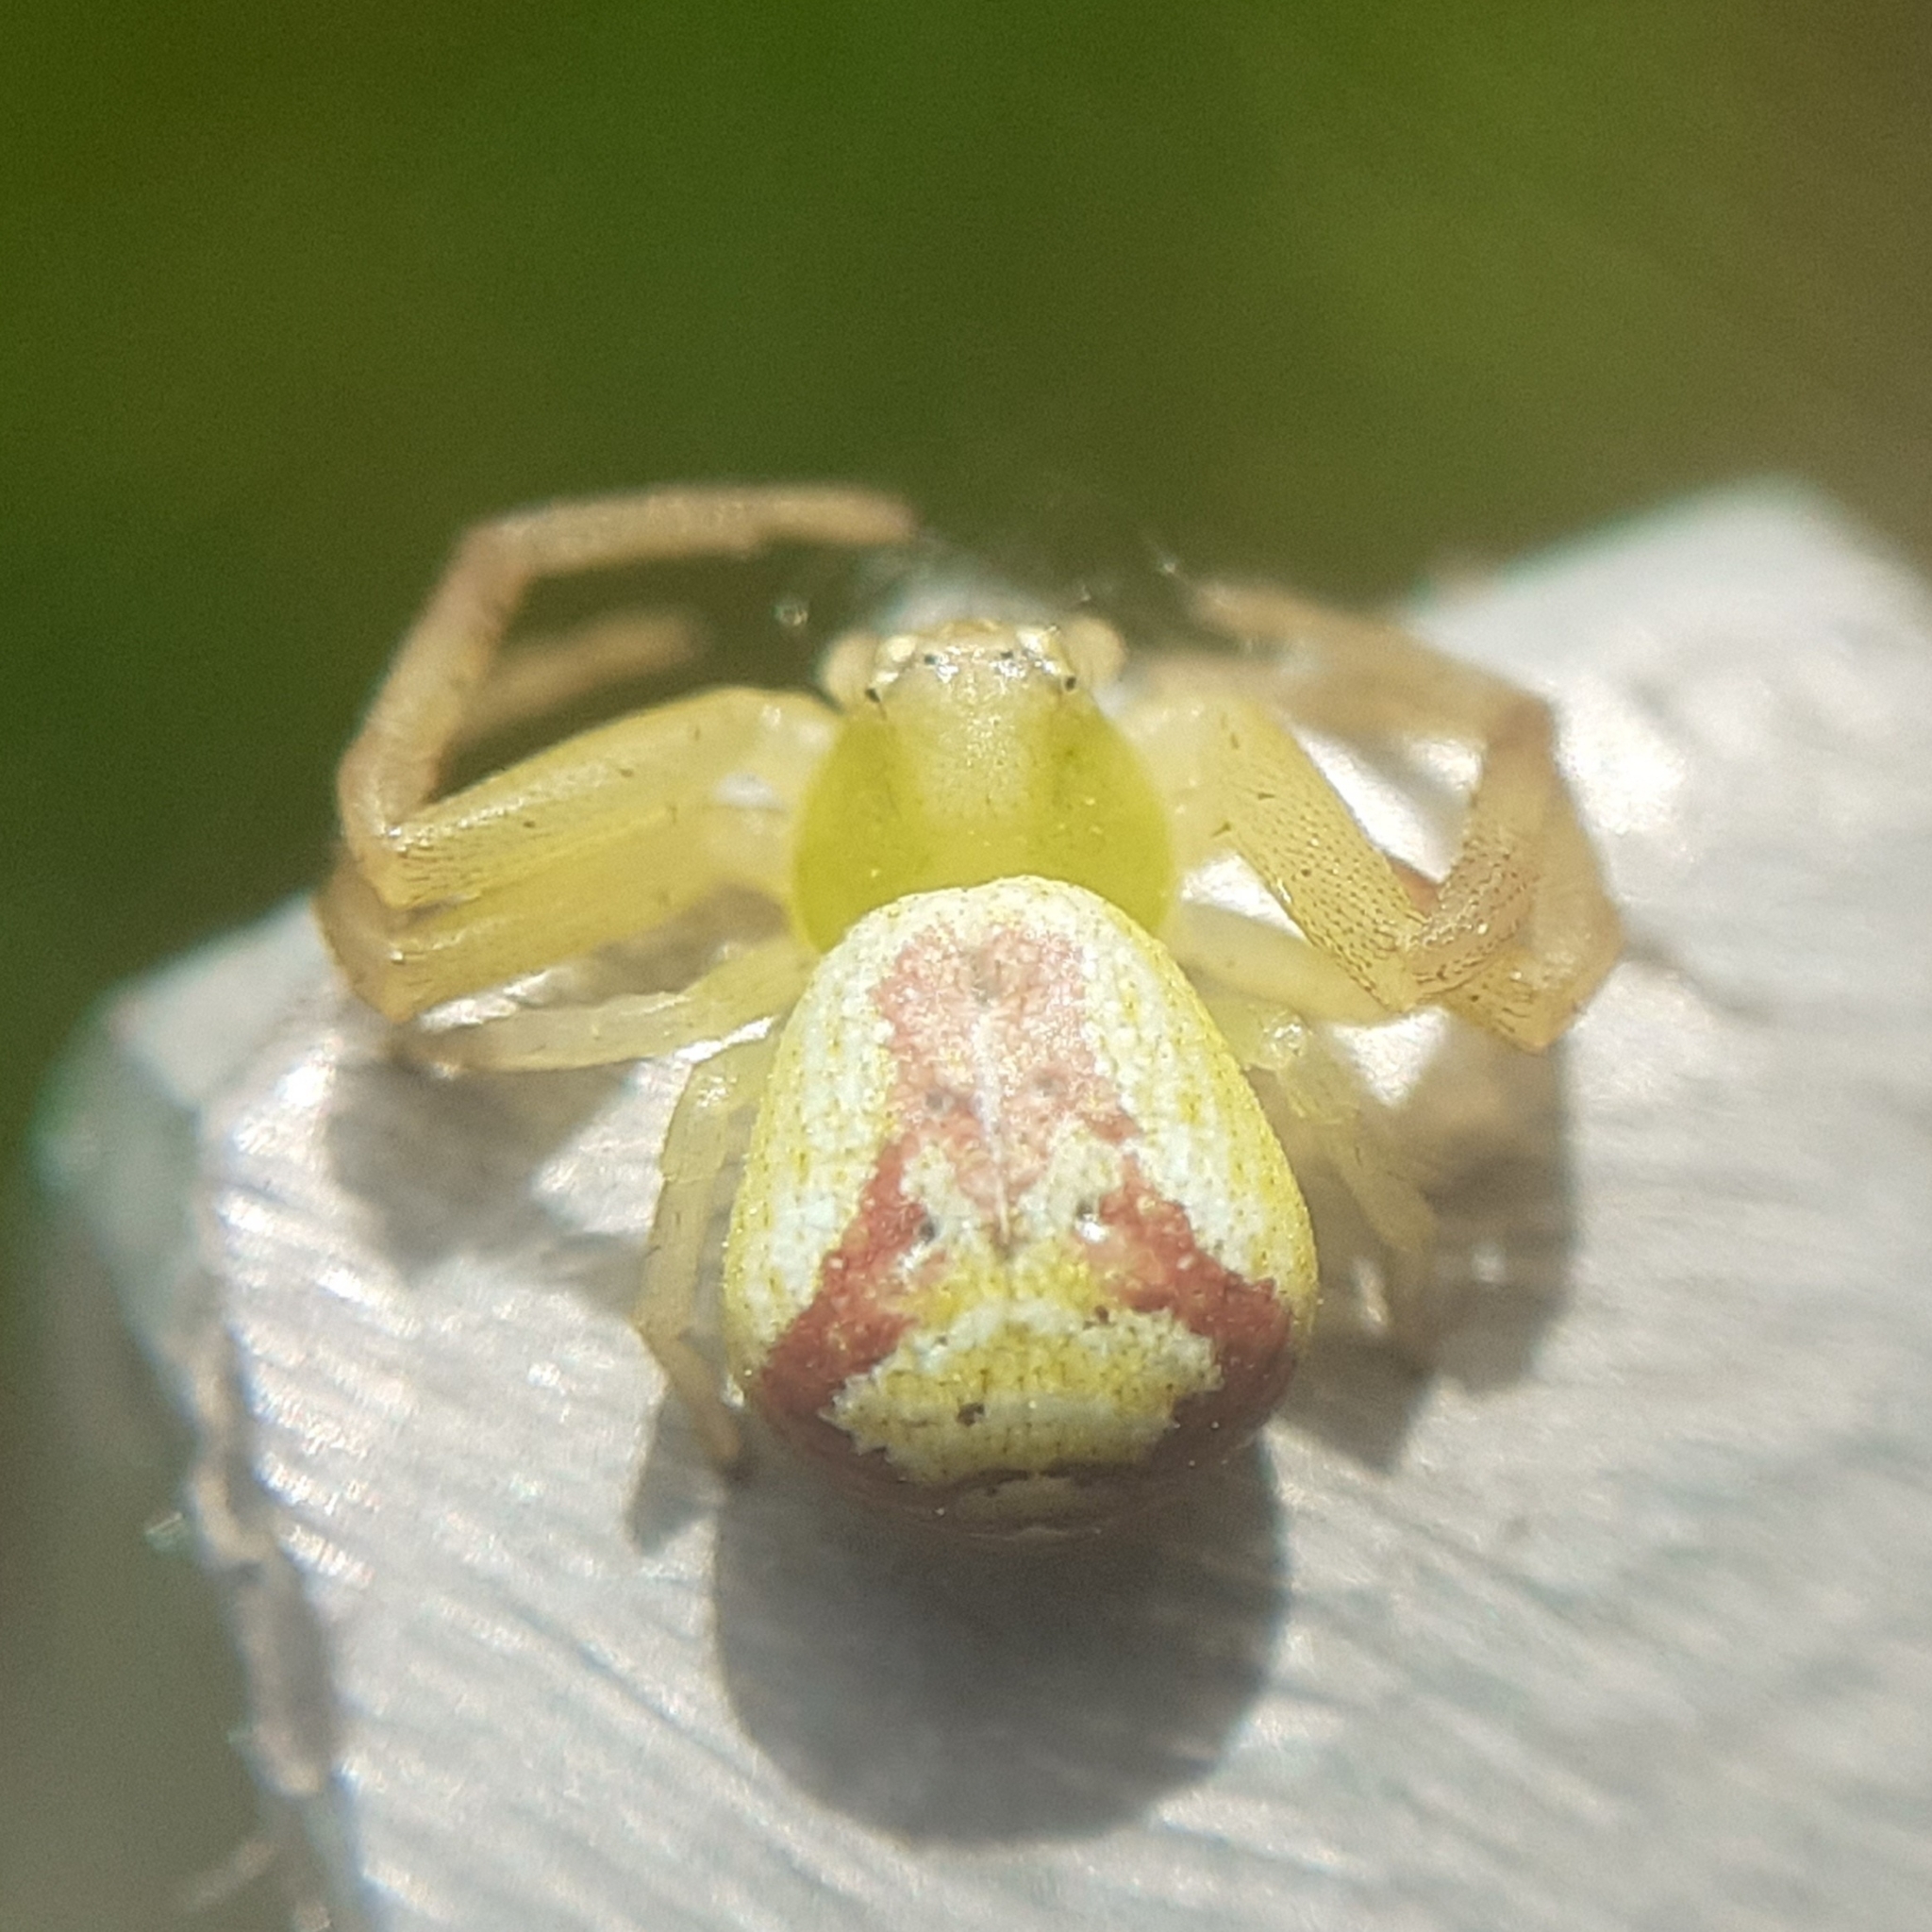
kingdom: Animalia
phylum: Arthropoda
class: Arachnida
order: Araneae
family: Thomisidae
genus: Ebrechtella
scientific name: Ebrechtella tricuspidata
